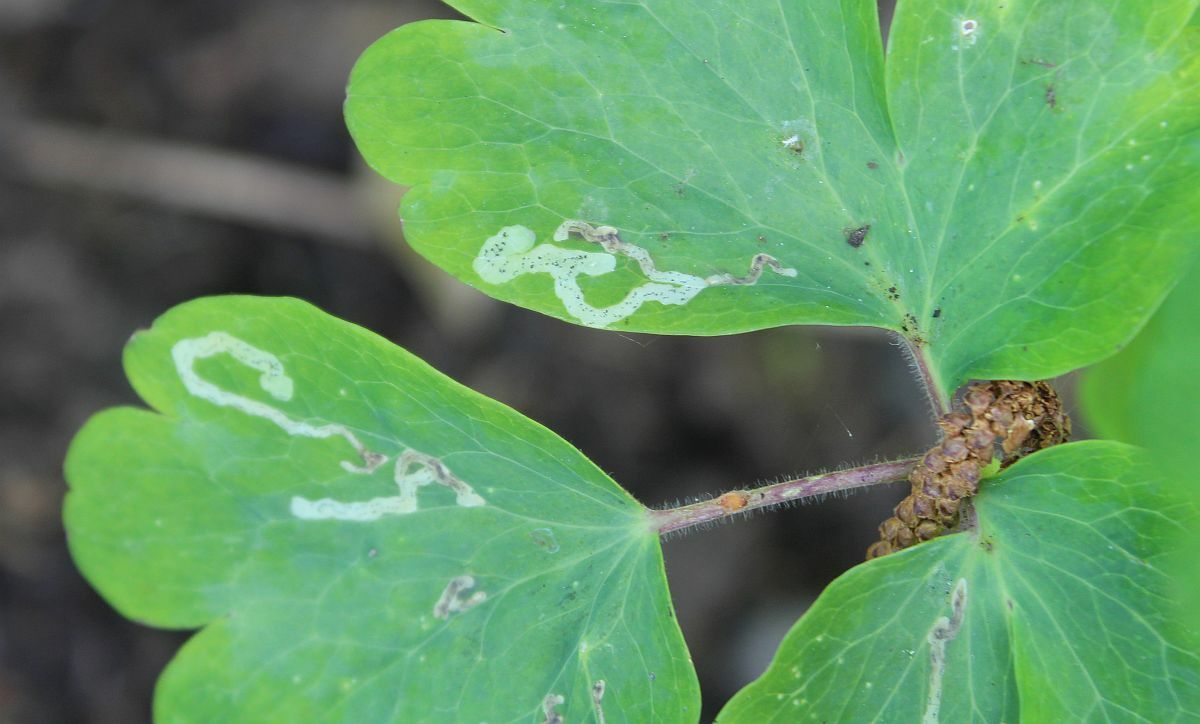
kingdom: Animalia
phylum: Arthropoda
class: Insecta
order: Diptera
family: Agromyzidae
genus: Phytomyza
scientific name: Phytomyza ancholiae
